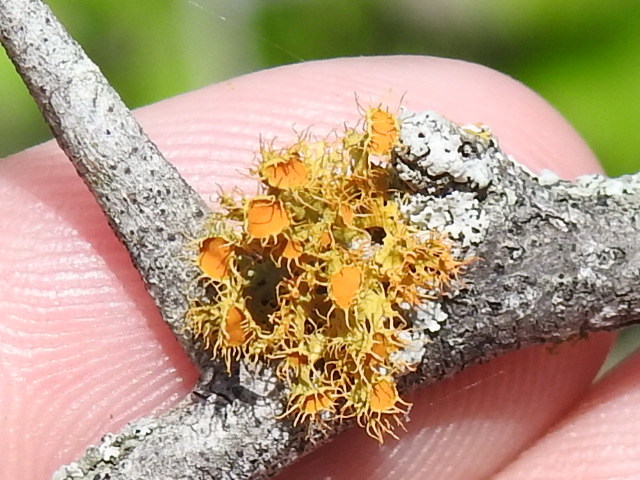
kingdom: Fungi
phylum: Ascomycota
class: Lecanoromycetes
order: Teloschistales
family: Teloschistaceae
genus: Niorma
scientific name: Niorma chrysophthalma
